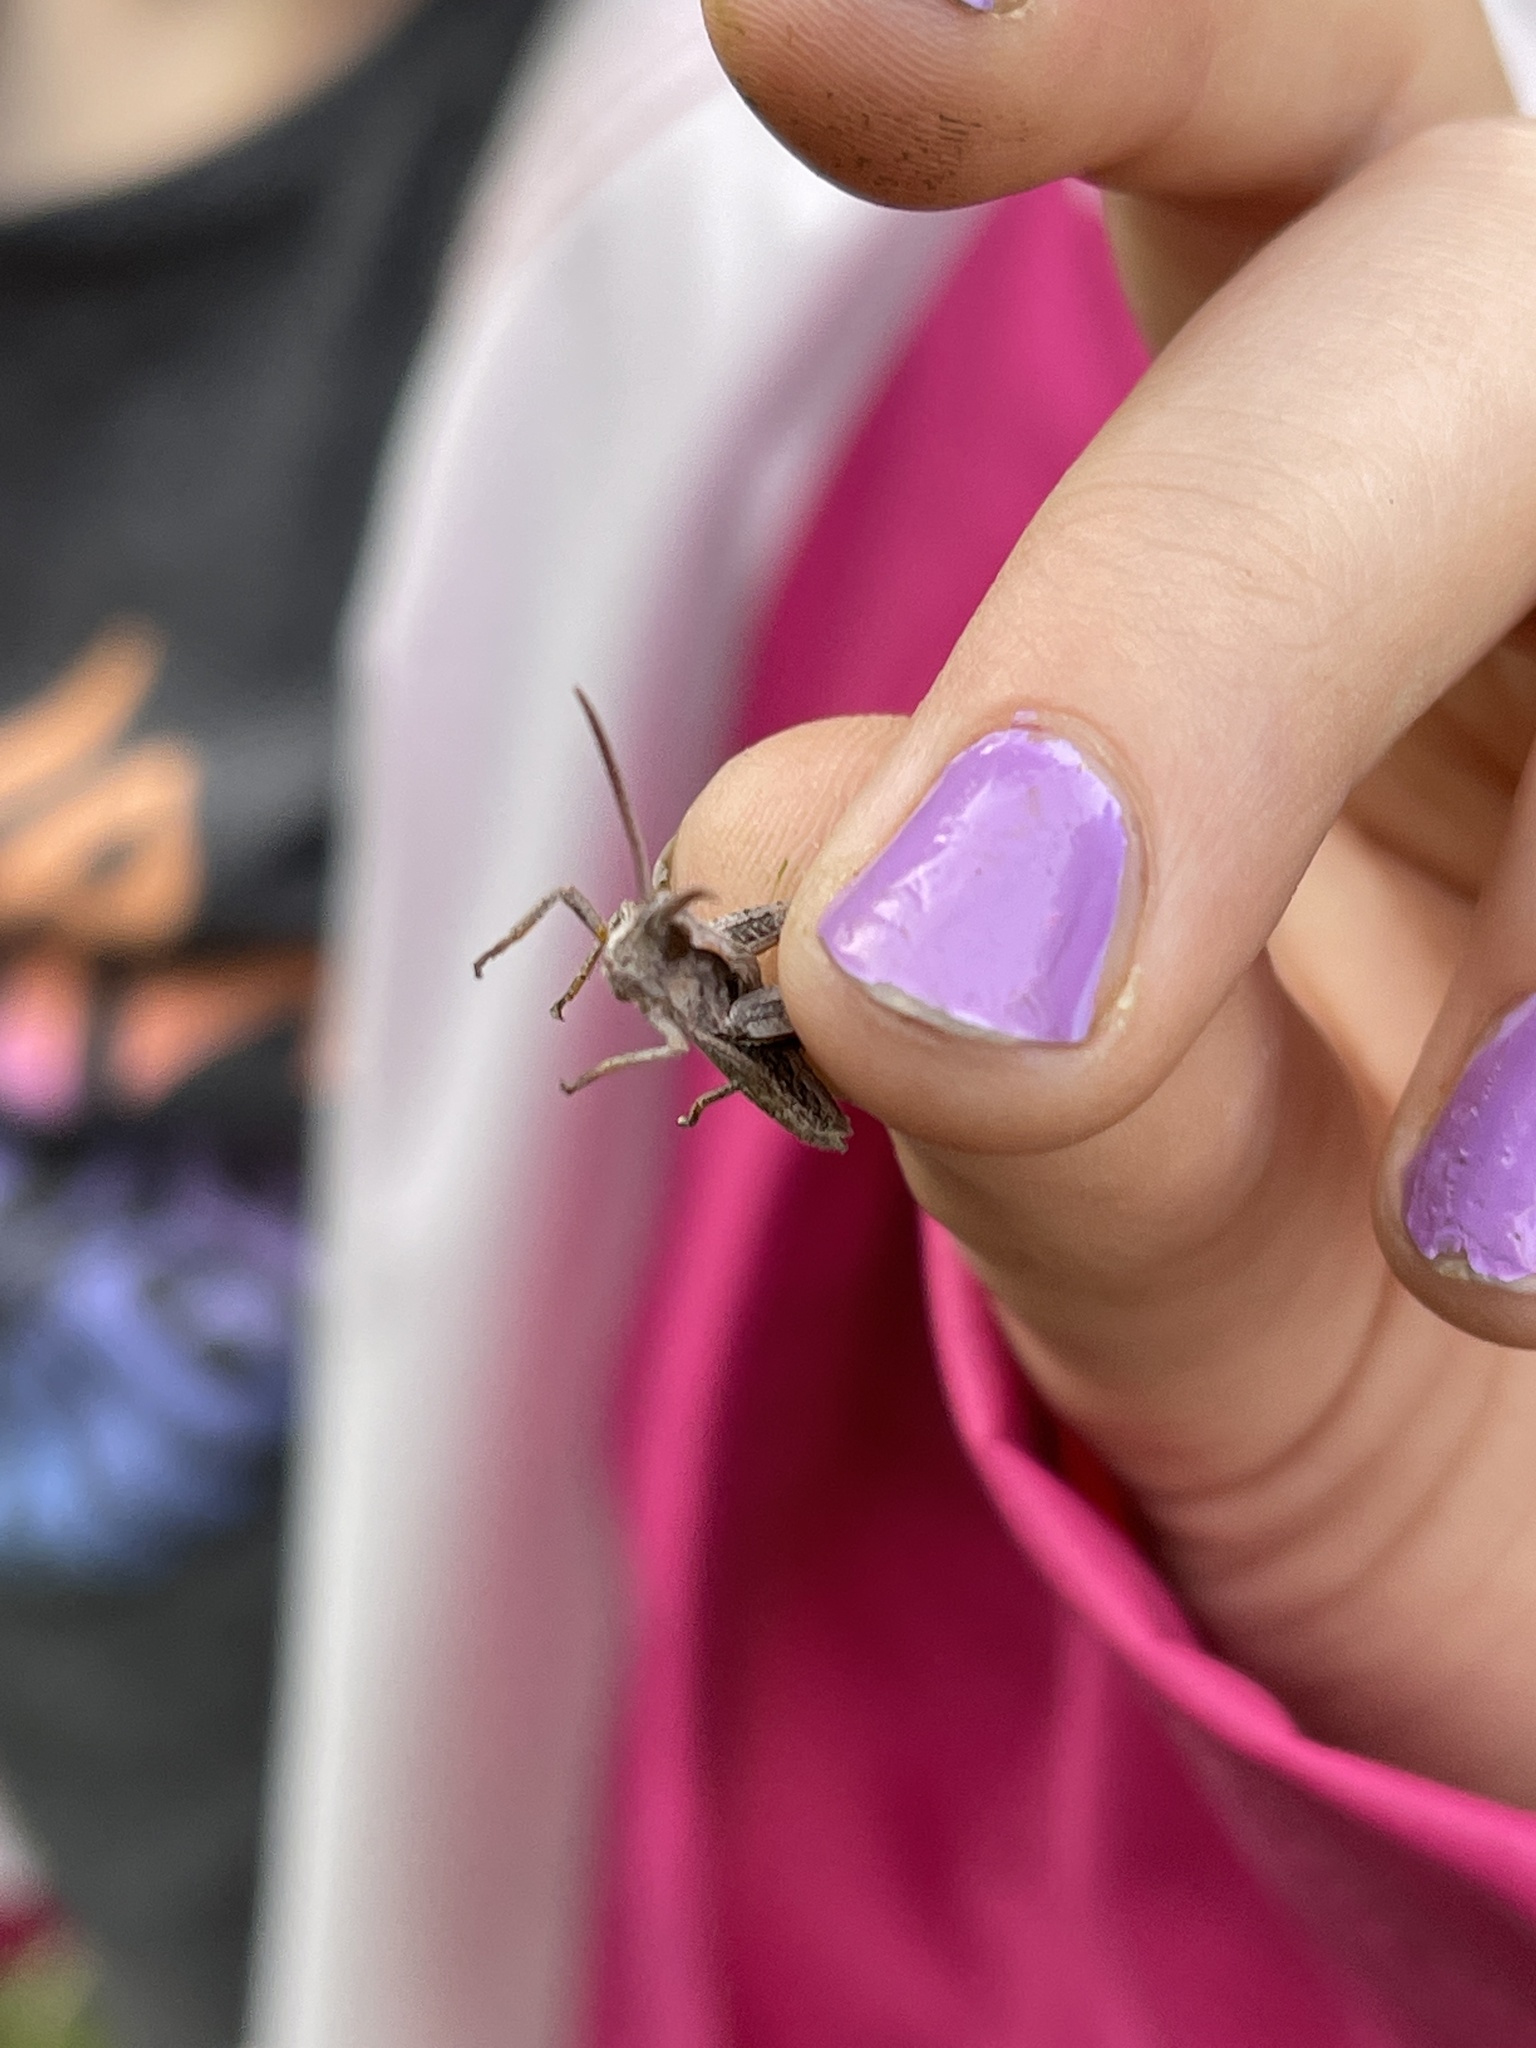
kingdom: Animalia
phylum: Arthropoda
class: Insecta
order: Orthoptera
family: Acrididae
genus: Chloealtis
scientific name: Chloealtis abdominalis
